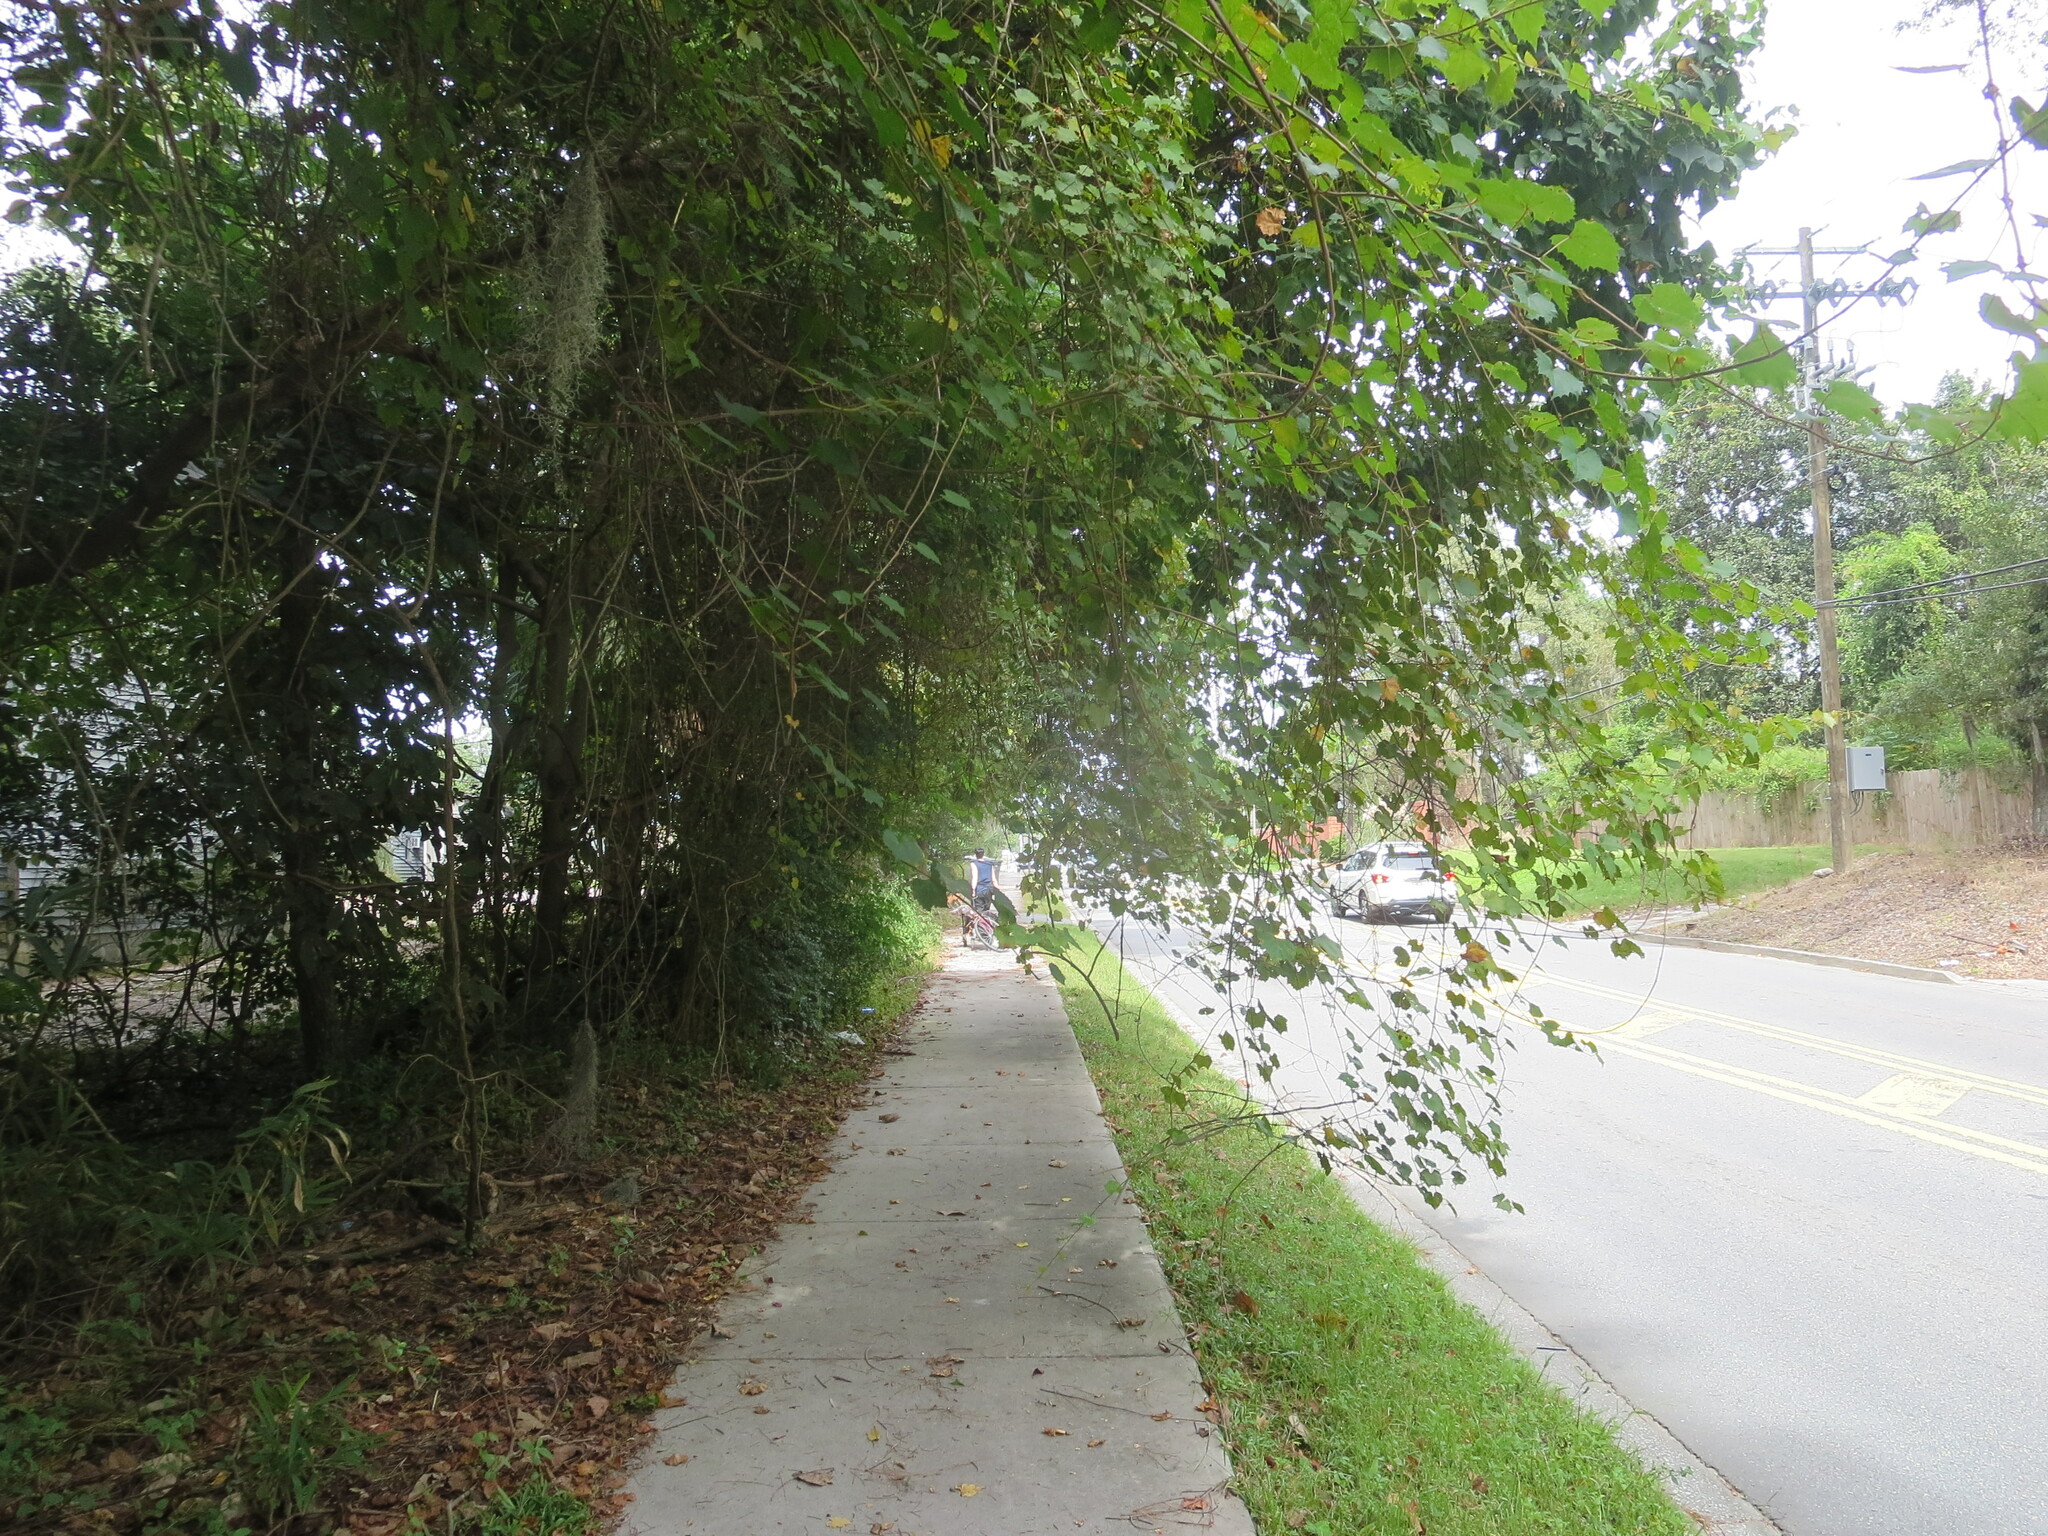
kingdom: Plantae
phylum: Tracheophyta
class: Magnoliopsida
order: Vitales
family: Vitaceae
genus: Vitis
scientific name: Vitis rotundifolia
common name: Muscadine grape
